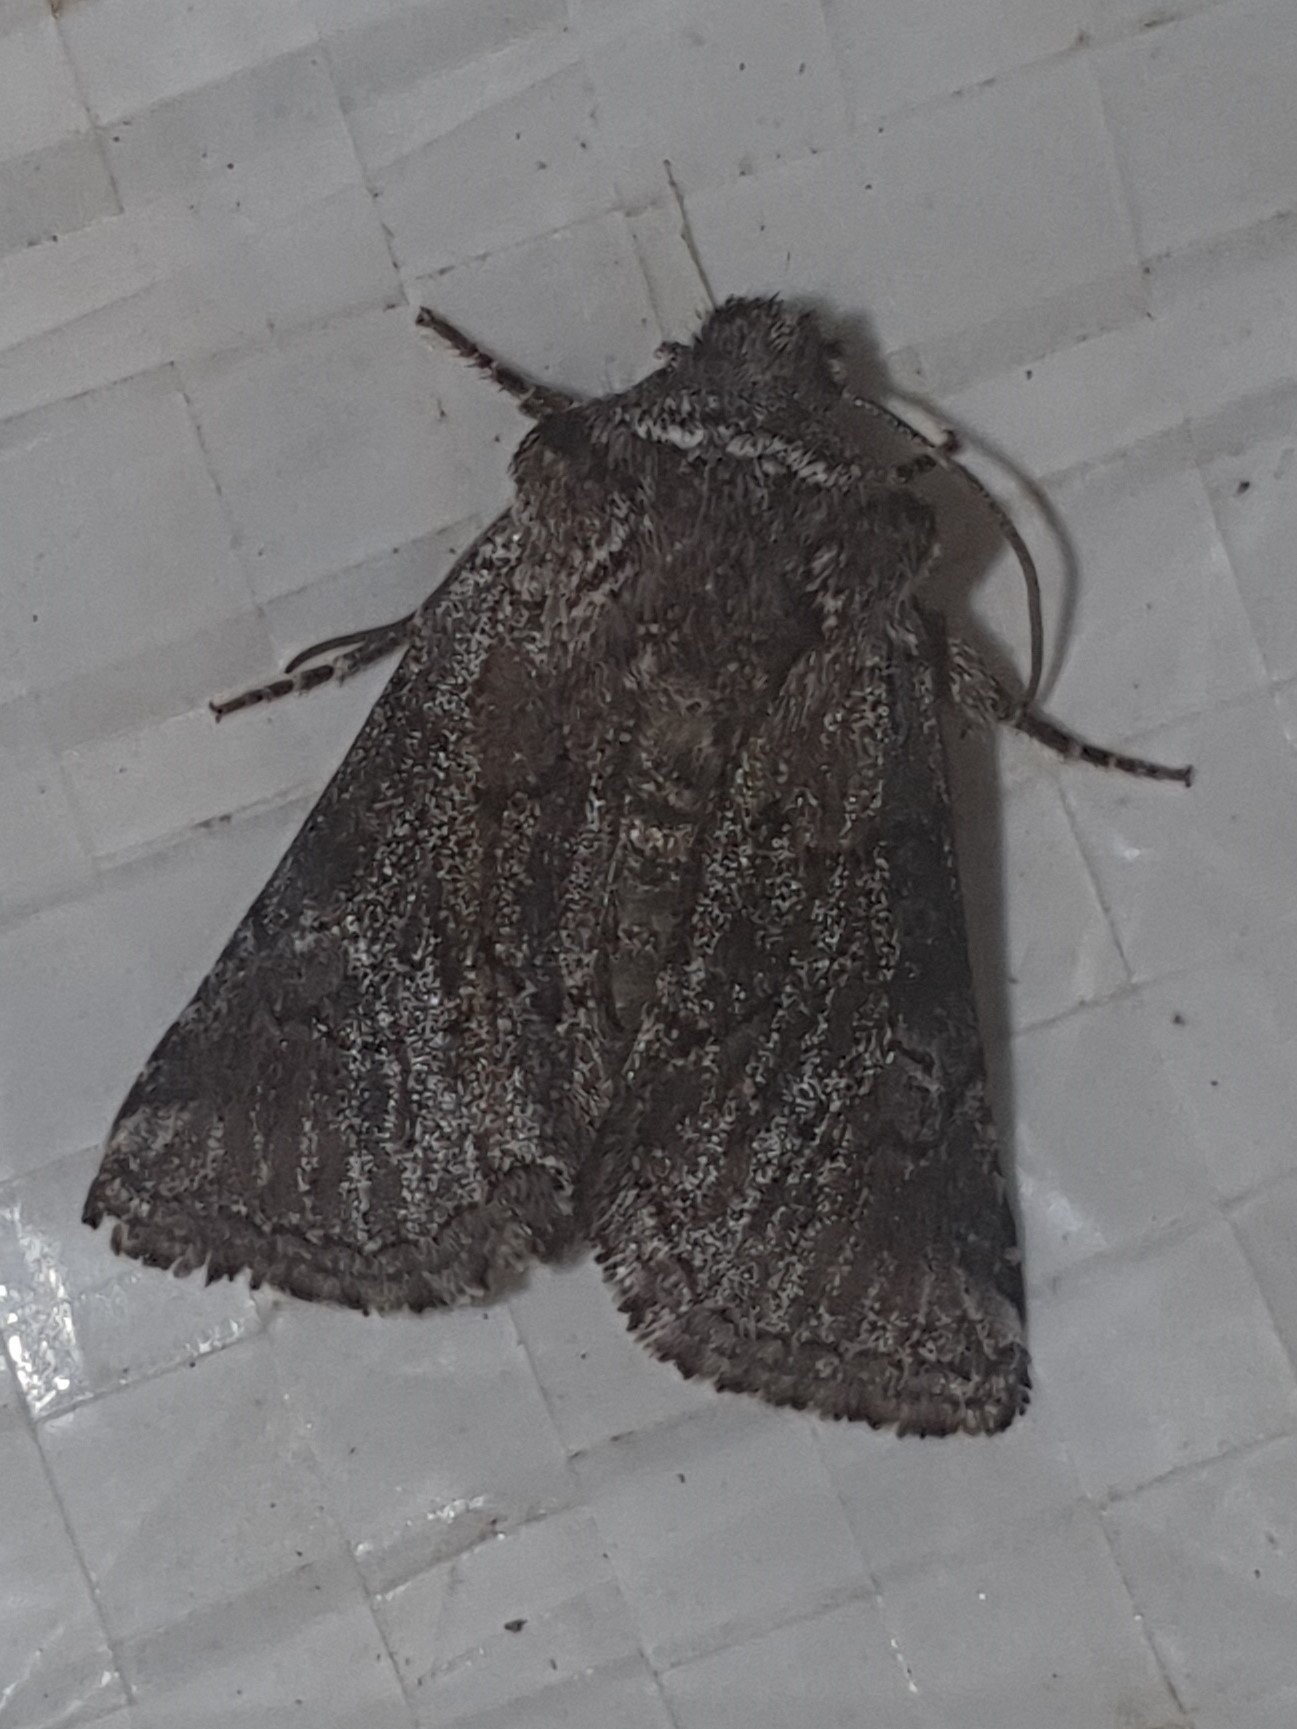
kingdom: Animalia
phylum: Arthropoda
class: Insecta
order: Lepidoptera
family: Noctuidae
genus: Cleonymia
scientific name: Cleonymia yvanii
